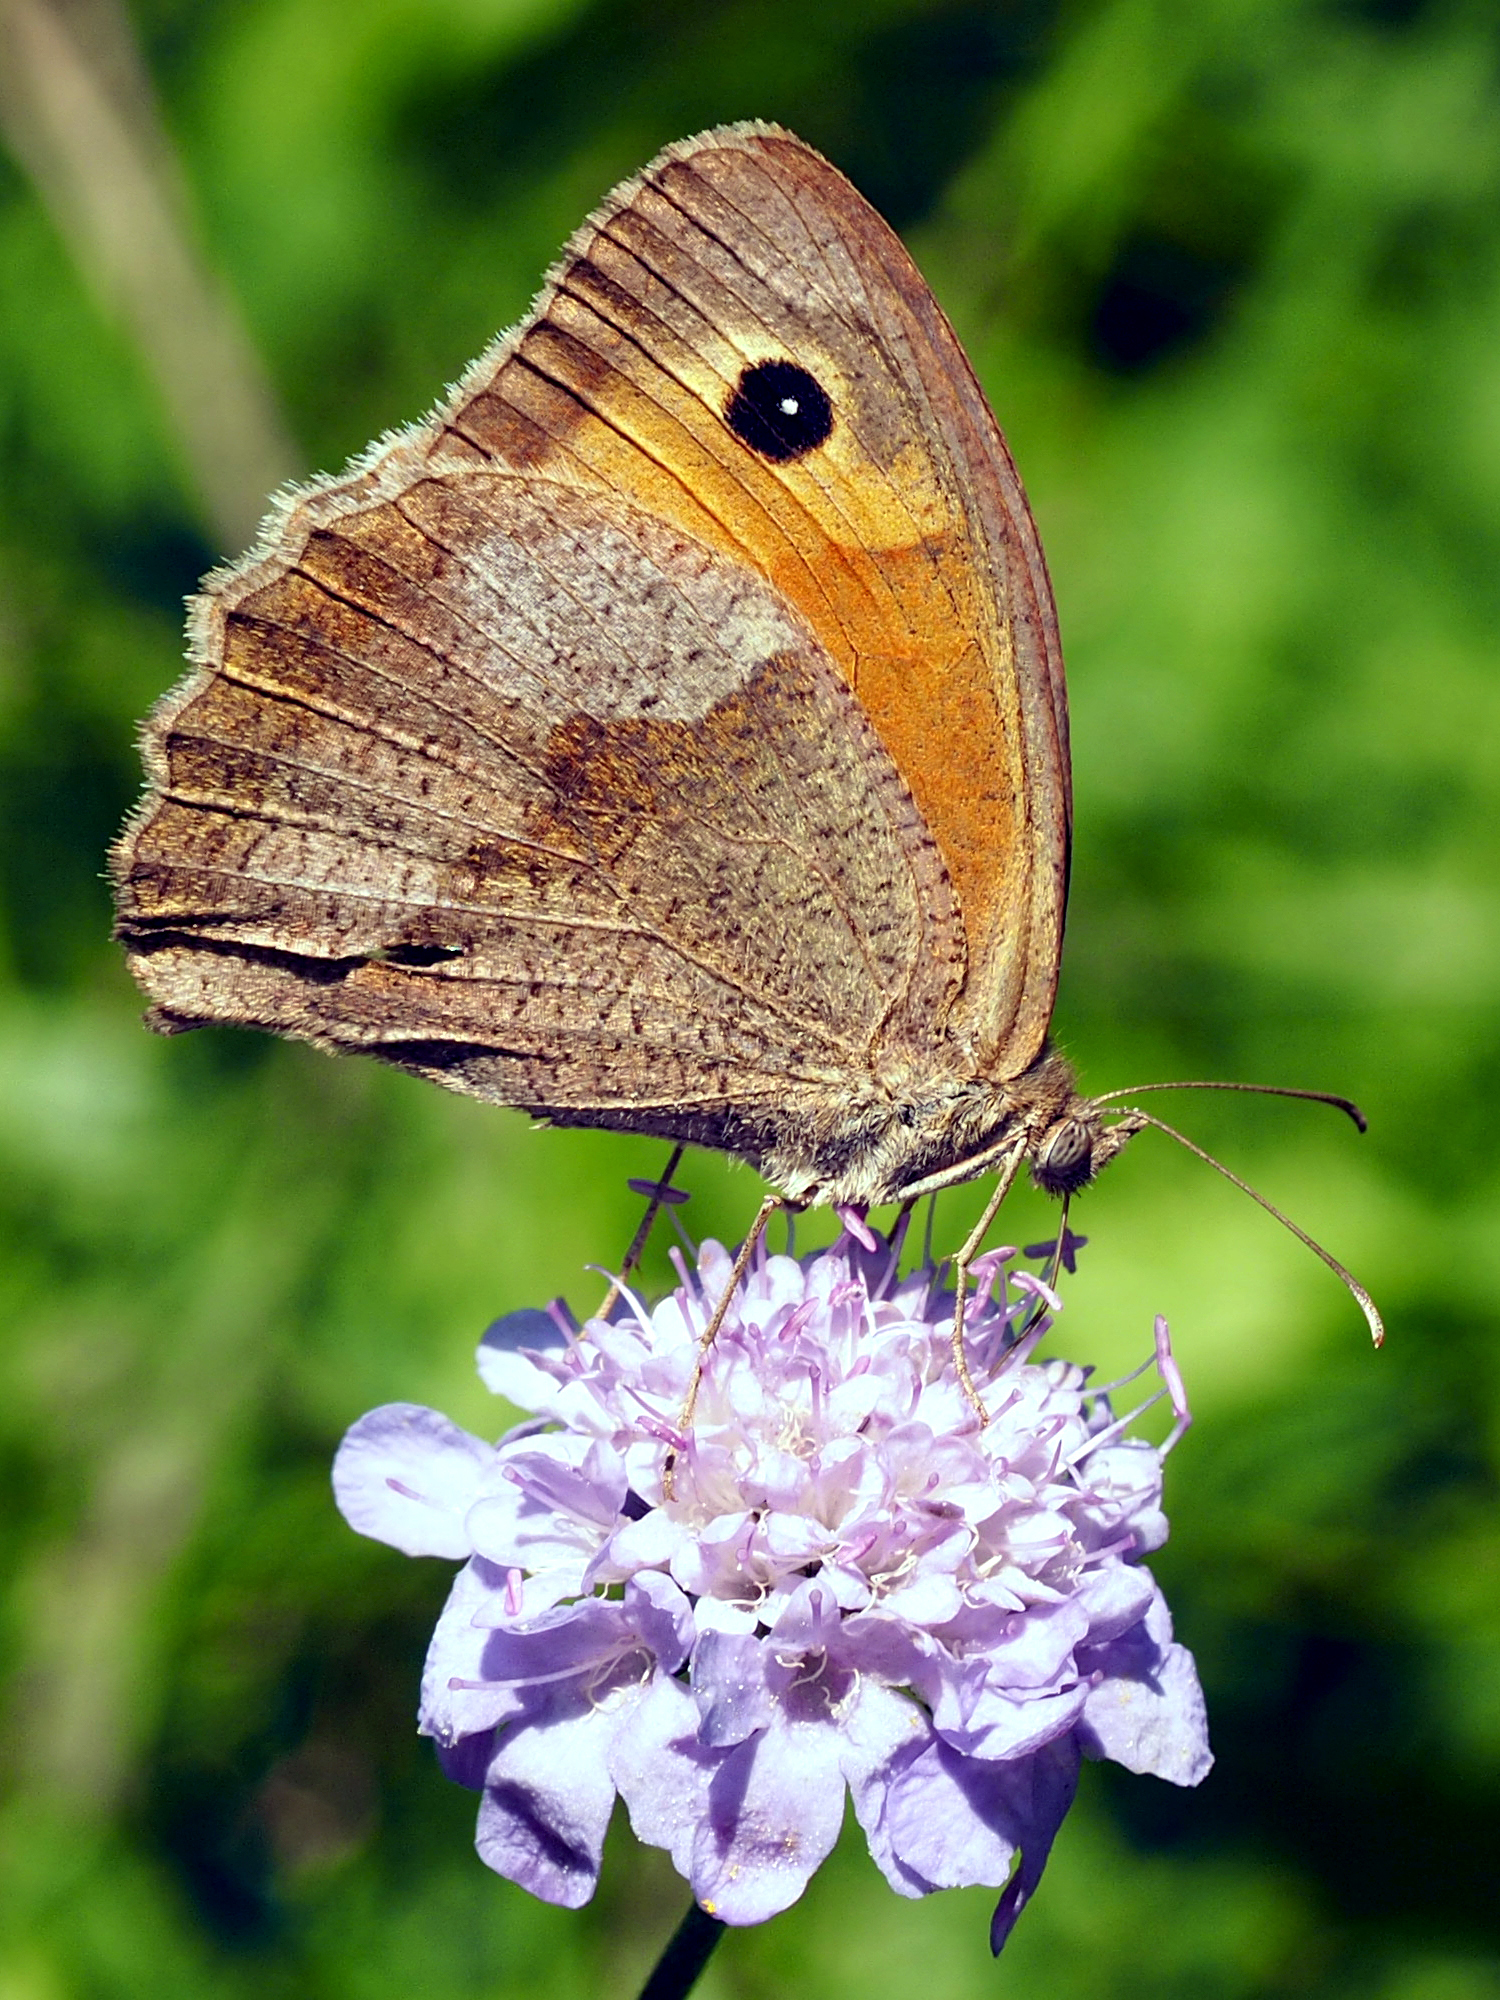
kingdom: Animalia
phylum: Arthropoda
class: Insecta
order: Lepidoptera
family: Nymphalidae
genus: Maniola
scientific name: Maniola jurtina
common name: Meadow brown
